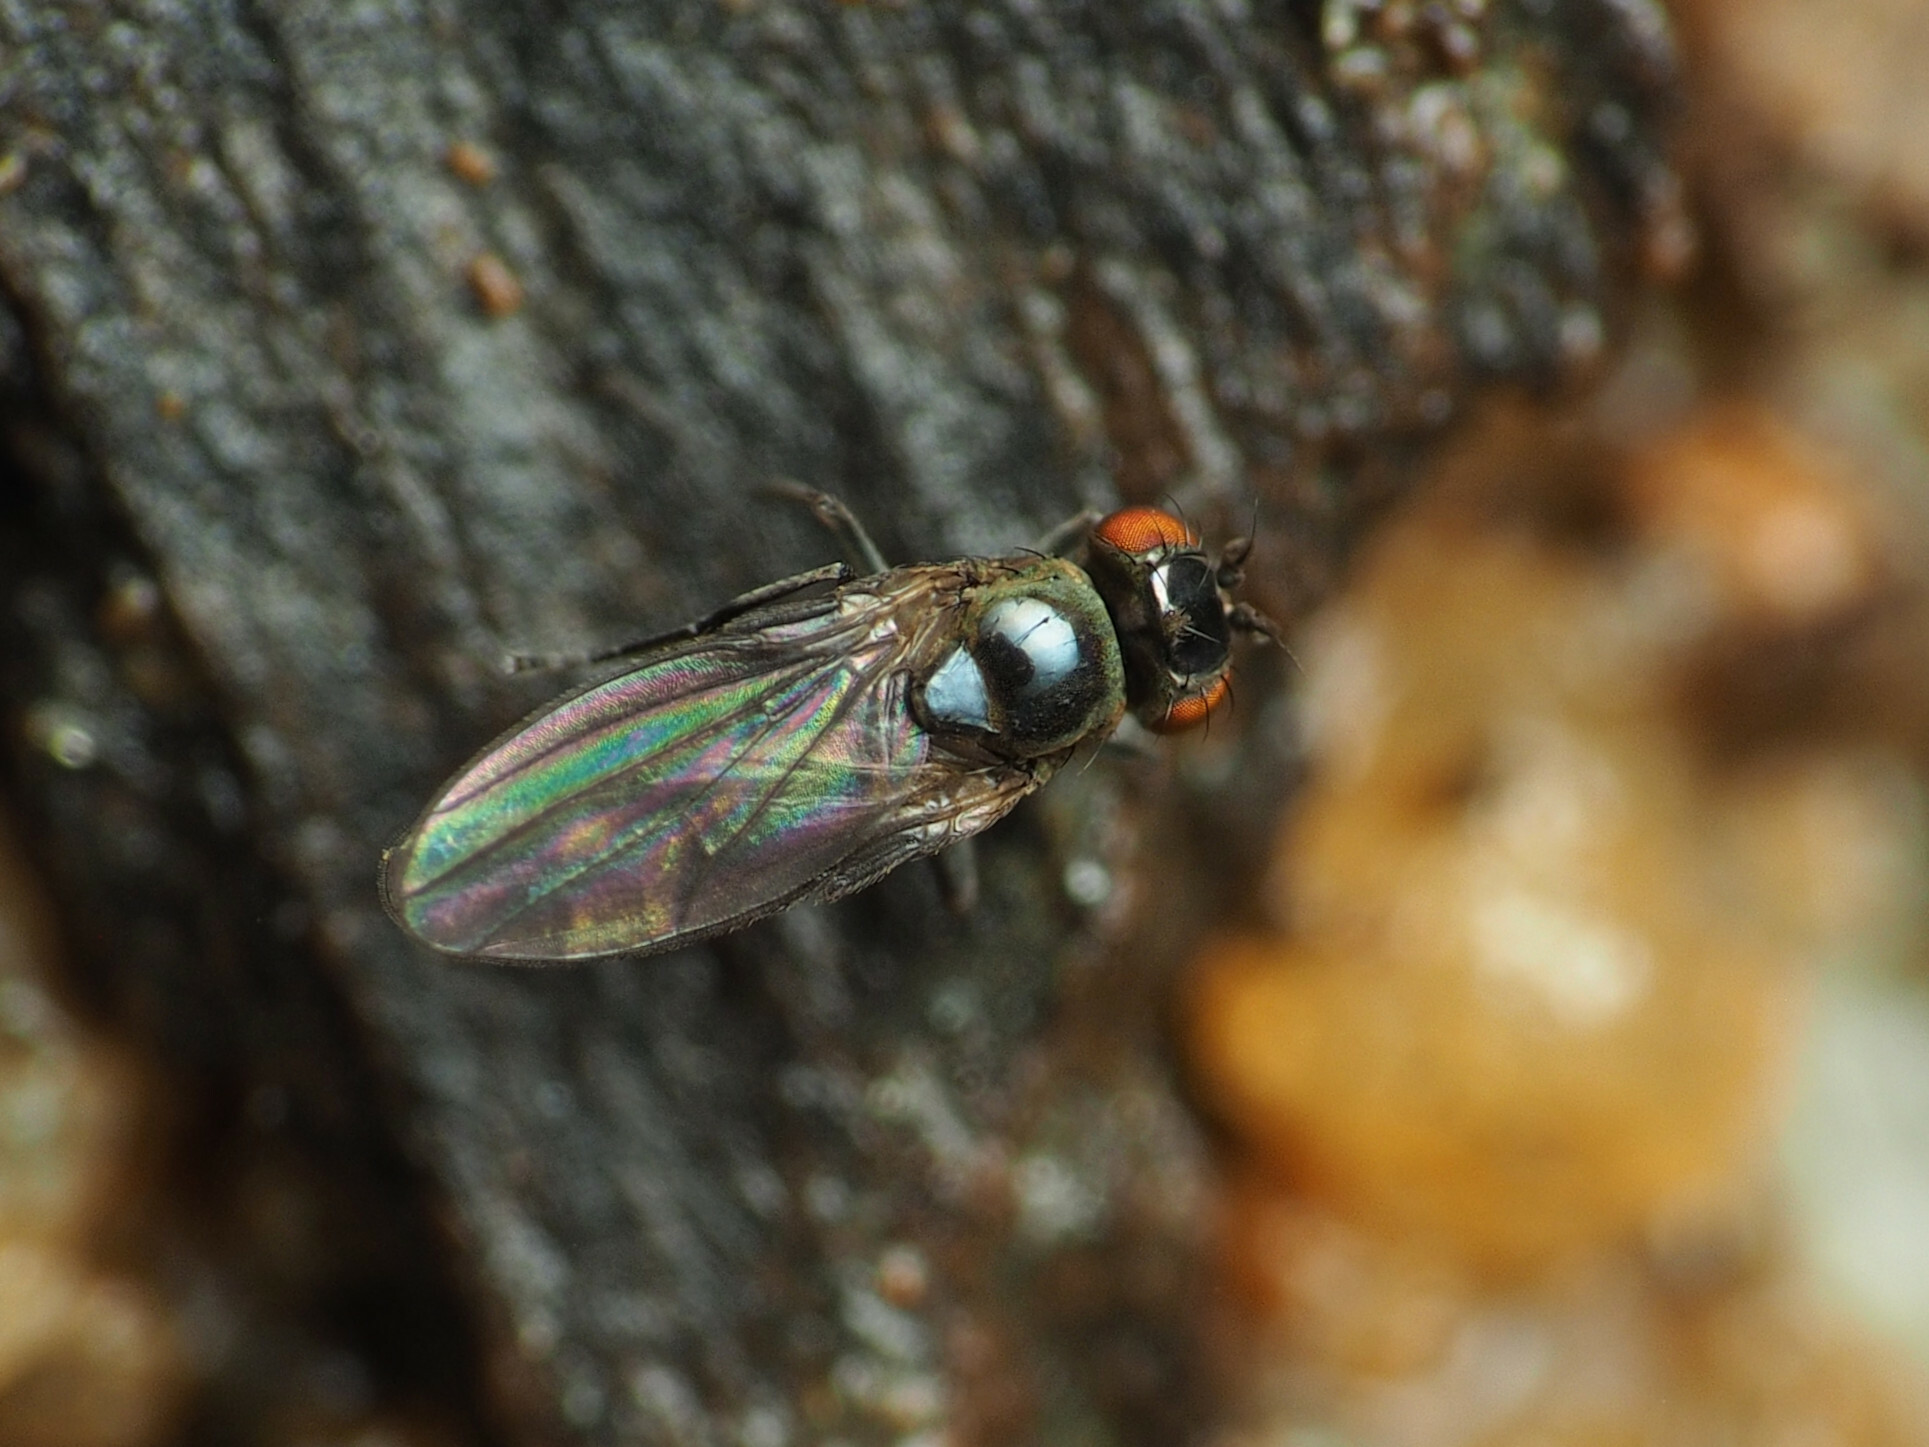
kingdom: Animalia
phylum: Arthropoda
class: Insecta
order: Diptera
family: Ephydridae
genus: Scatella
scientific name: Scatella favillacea
